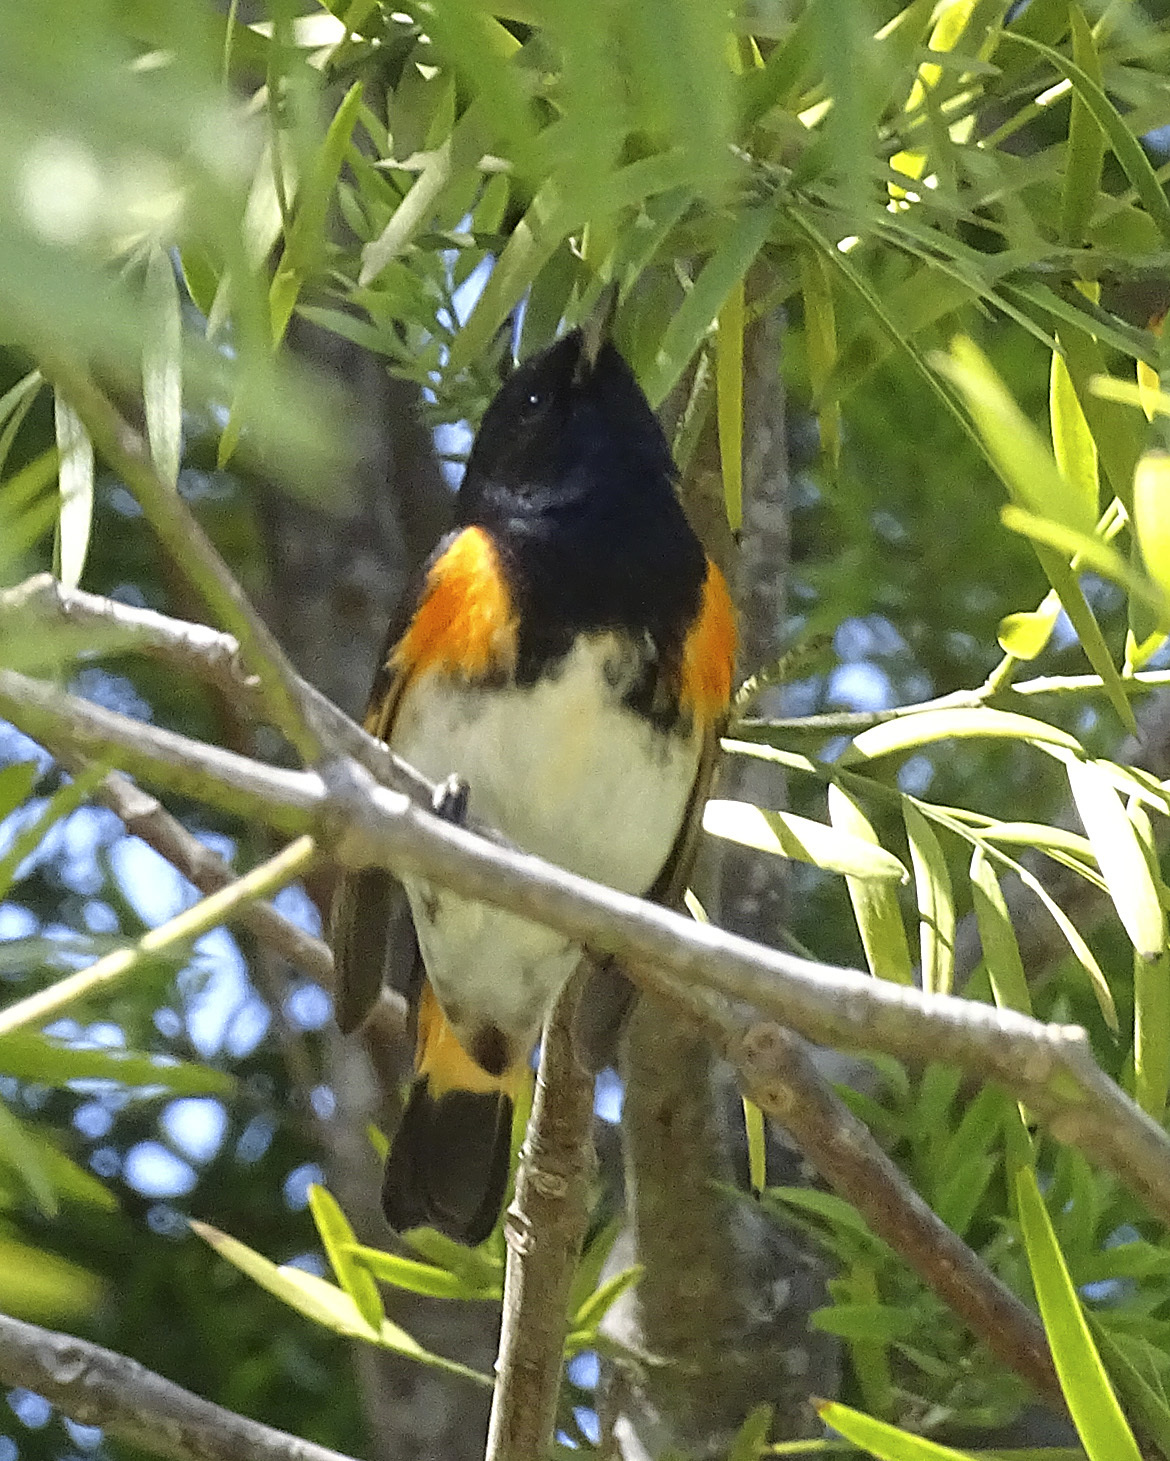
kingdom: Animalia
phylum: Chordata
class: Aves
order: Passeriformes
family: Parulidae
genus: Setophaga
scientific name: Setophaga ruticilla
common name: American redstart
